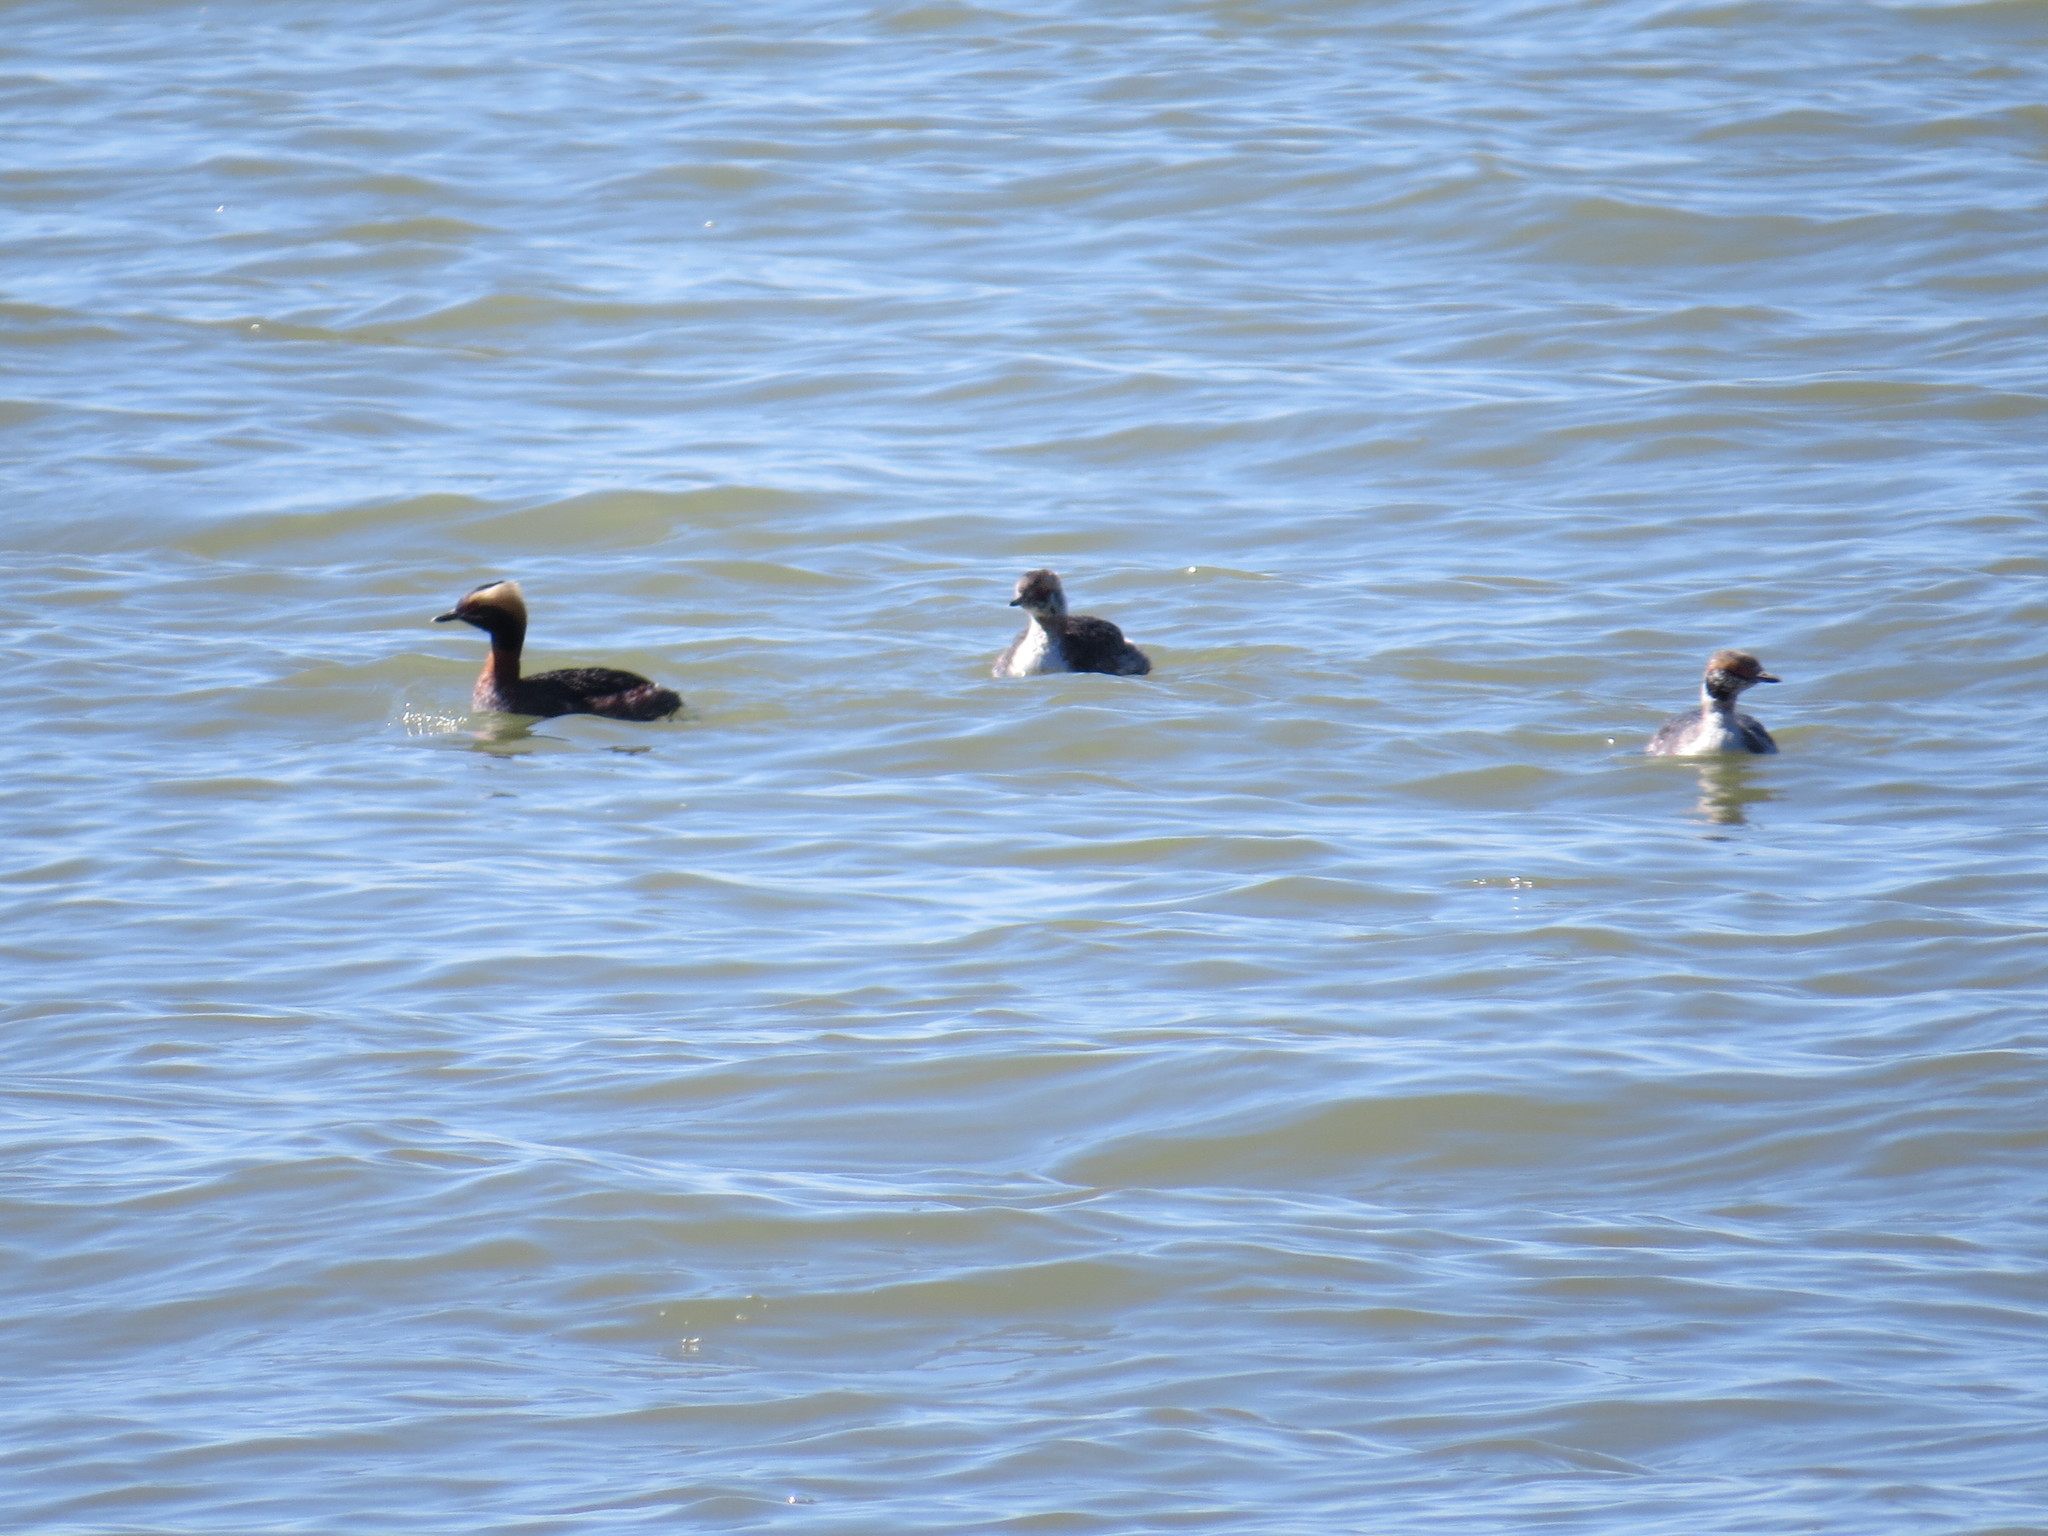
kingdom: Animalia
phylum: Chordata
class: Aves
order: Podicipediformes
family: Podicipedidae
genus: Podiceps
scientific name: Podiceps auritus
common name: Horned grebe
